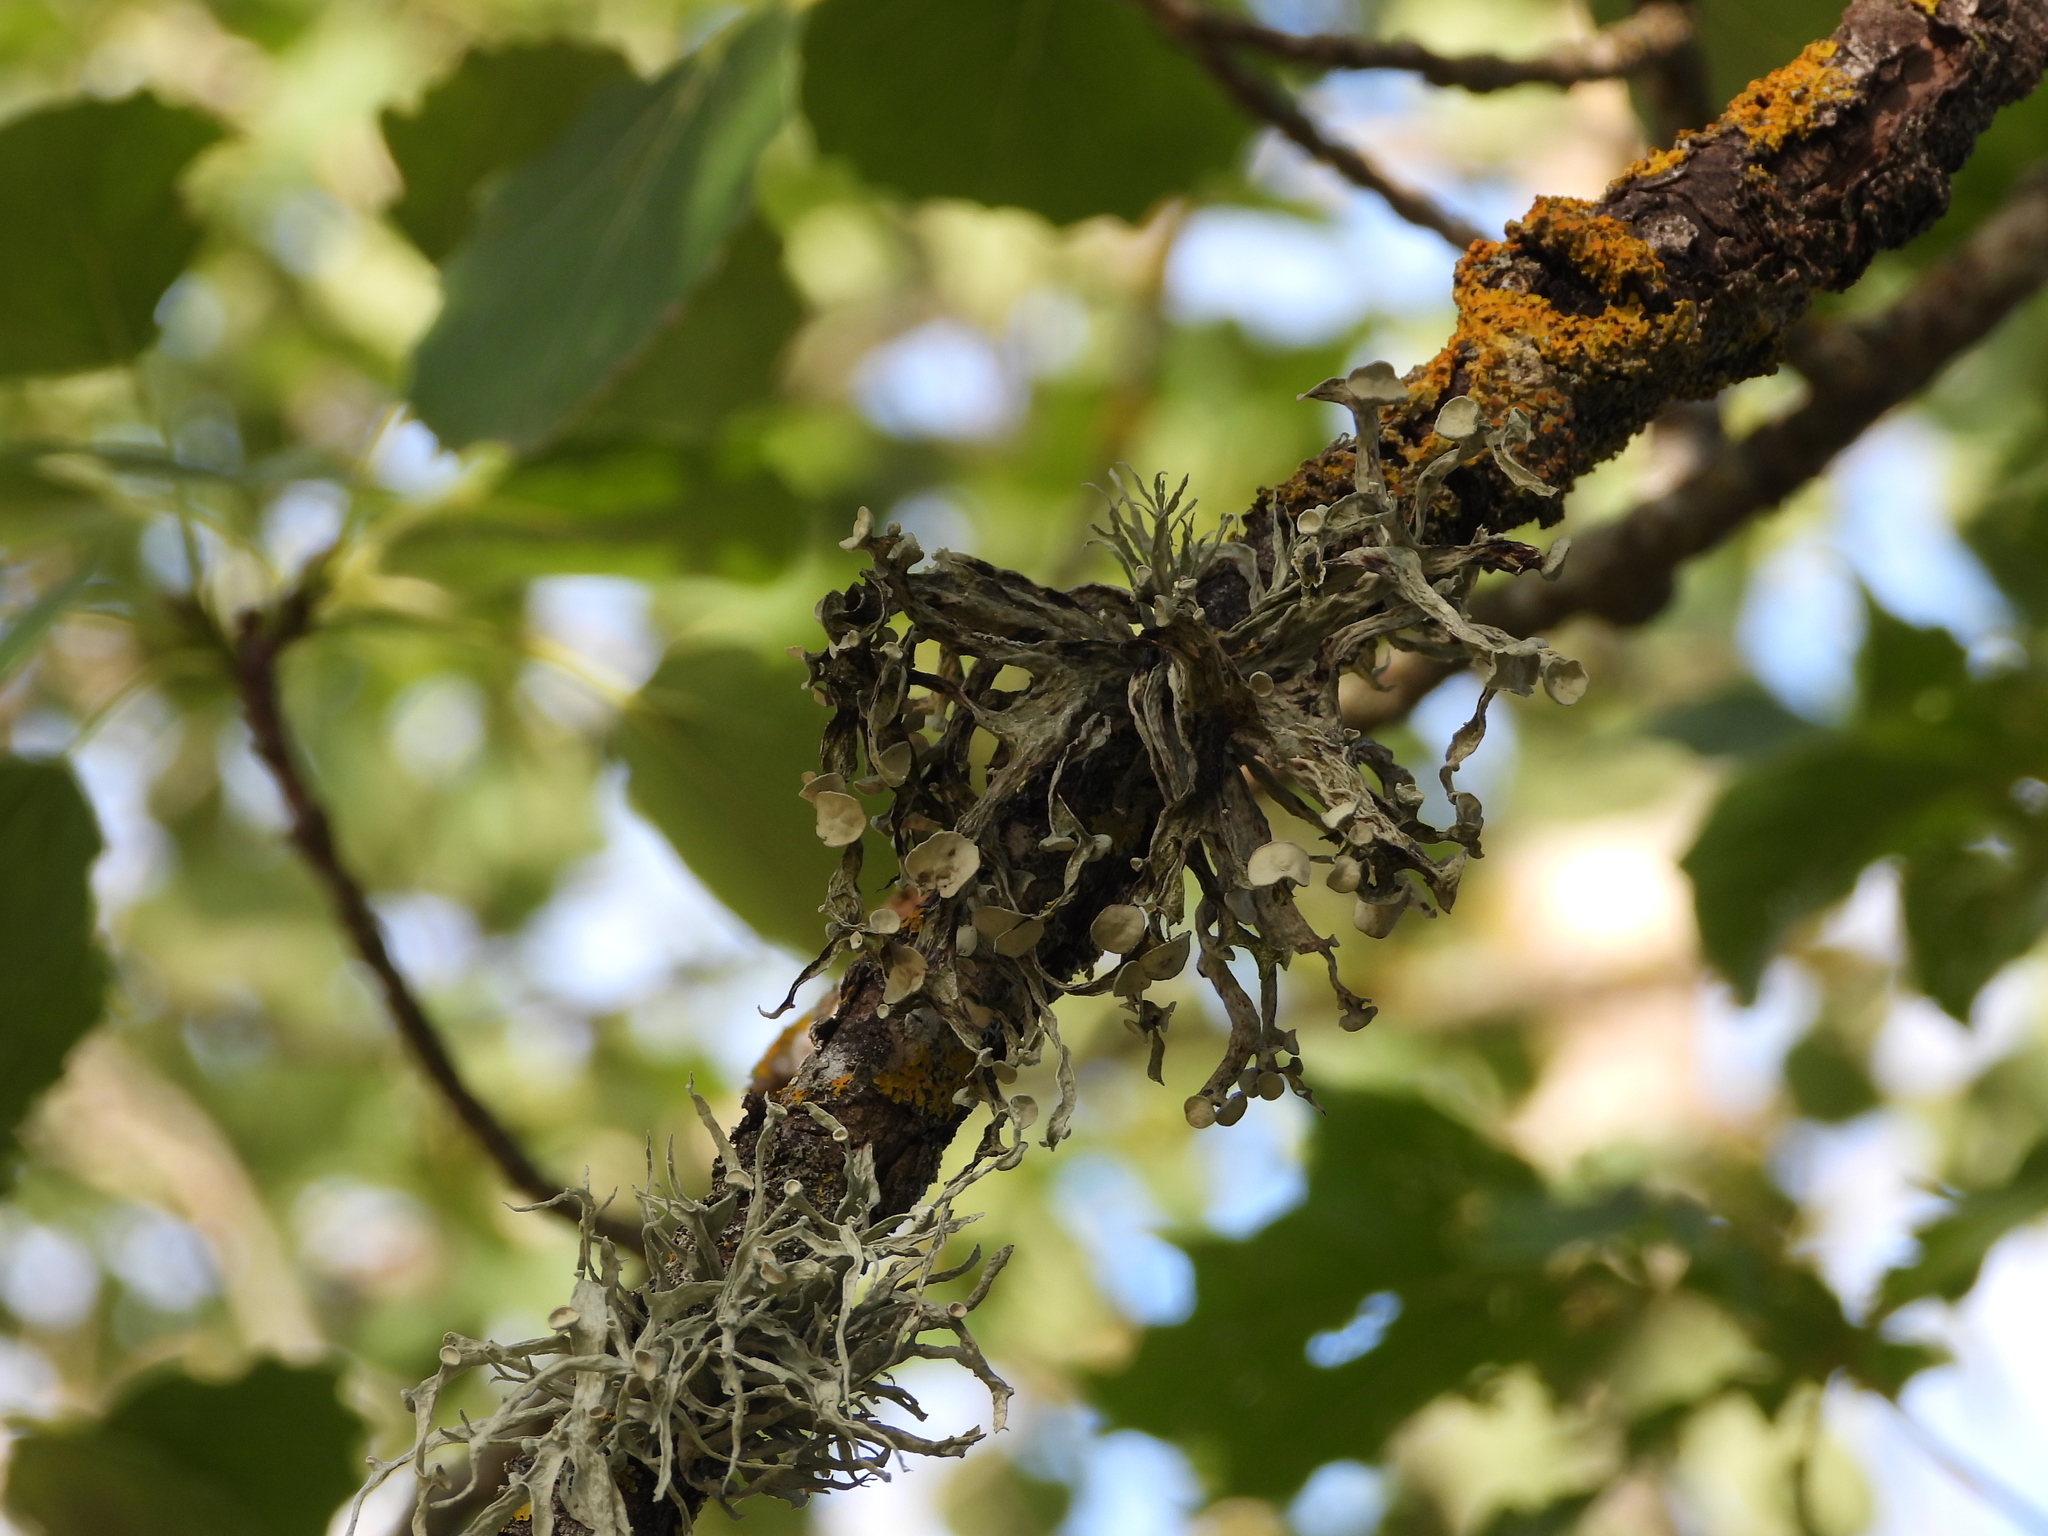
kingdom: Fungi
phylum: Ascomycota
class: Lecanoromycetes
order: Lecanorales
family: Ramalinaceae
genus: Ramalina
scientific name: Ramalina fastigiata
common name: Dotted ribbon lichen
